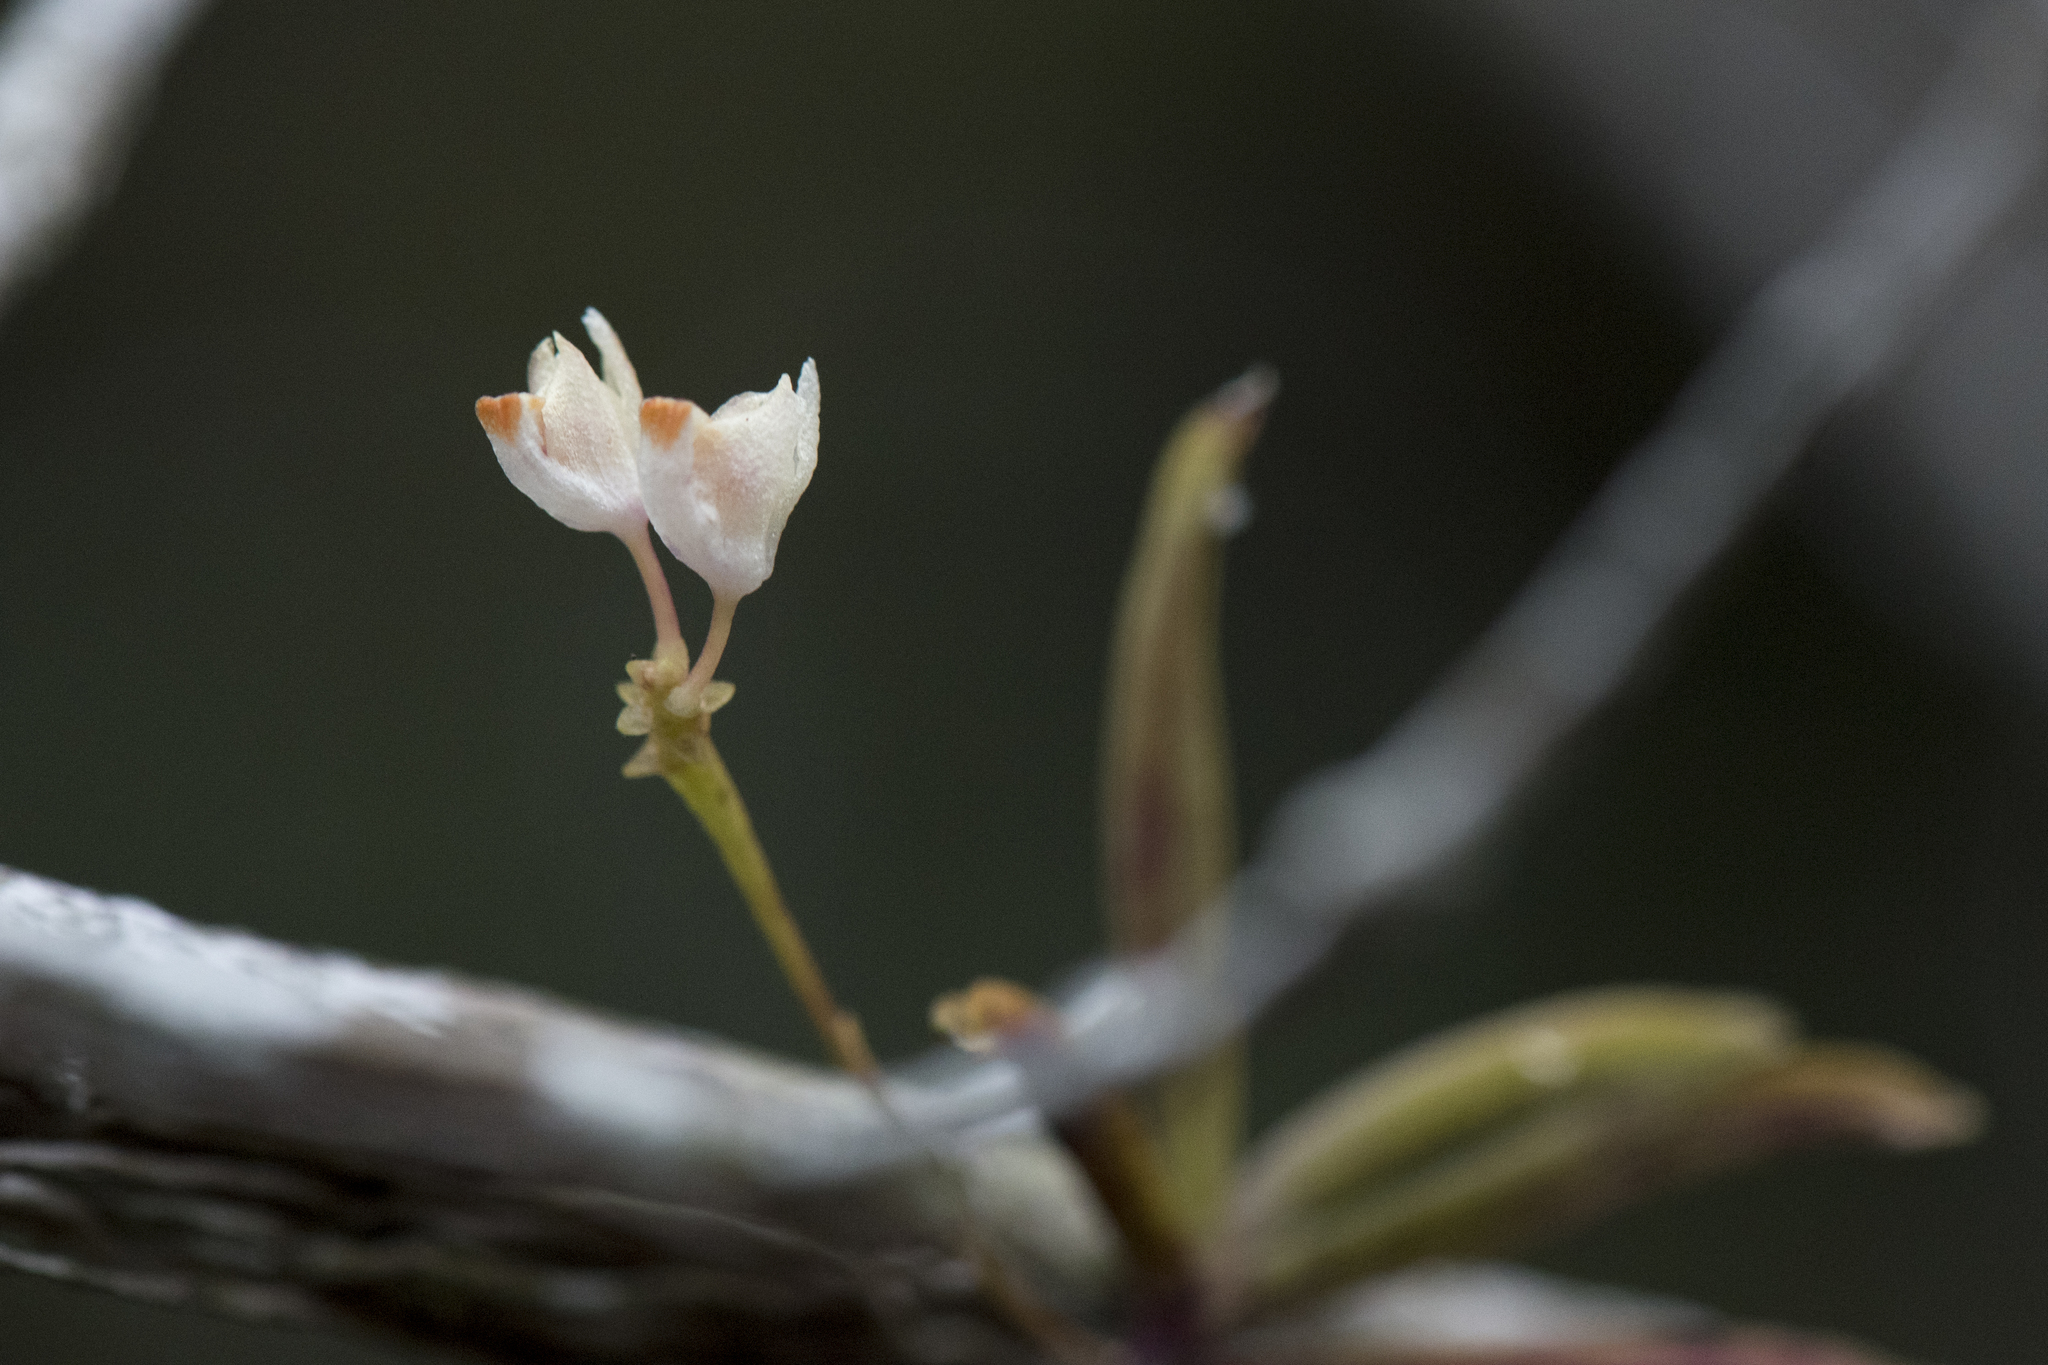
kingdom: Plantae
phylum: Tracheophyta
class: Liliopsida
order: Asparagales
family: Orchidaceae
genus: Thrixspermum
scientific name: Thrixspermum formosanum
